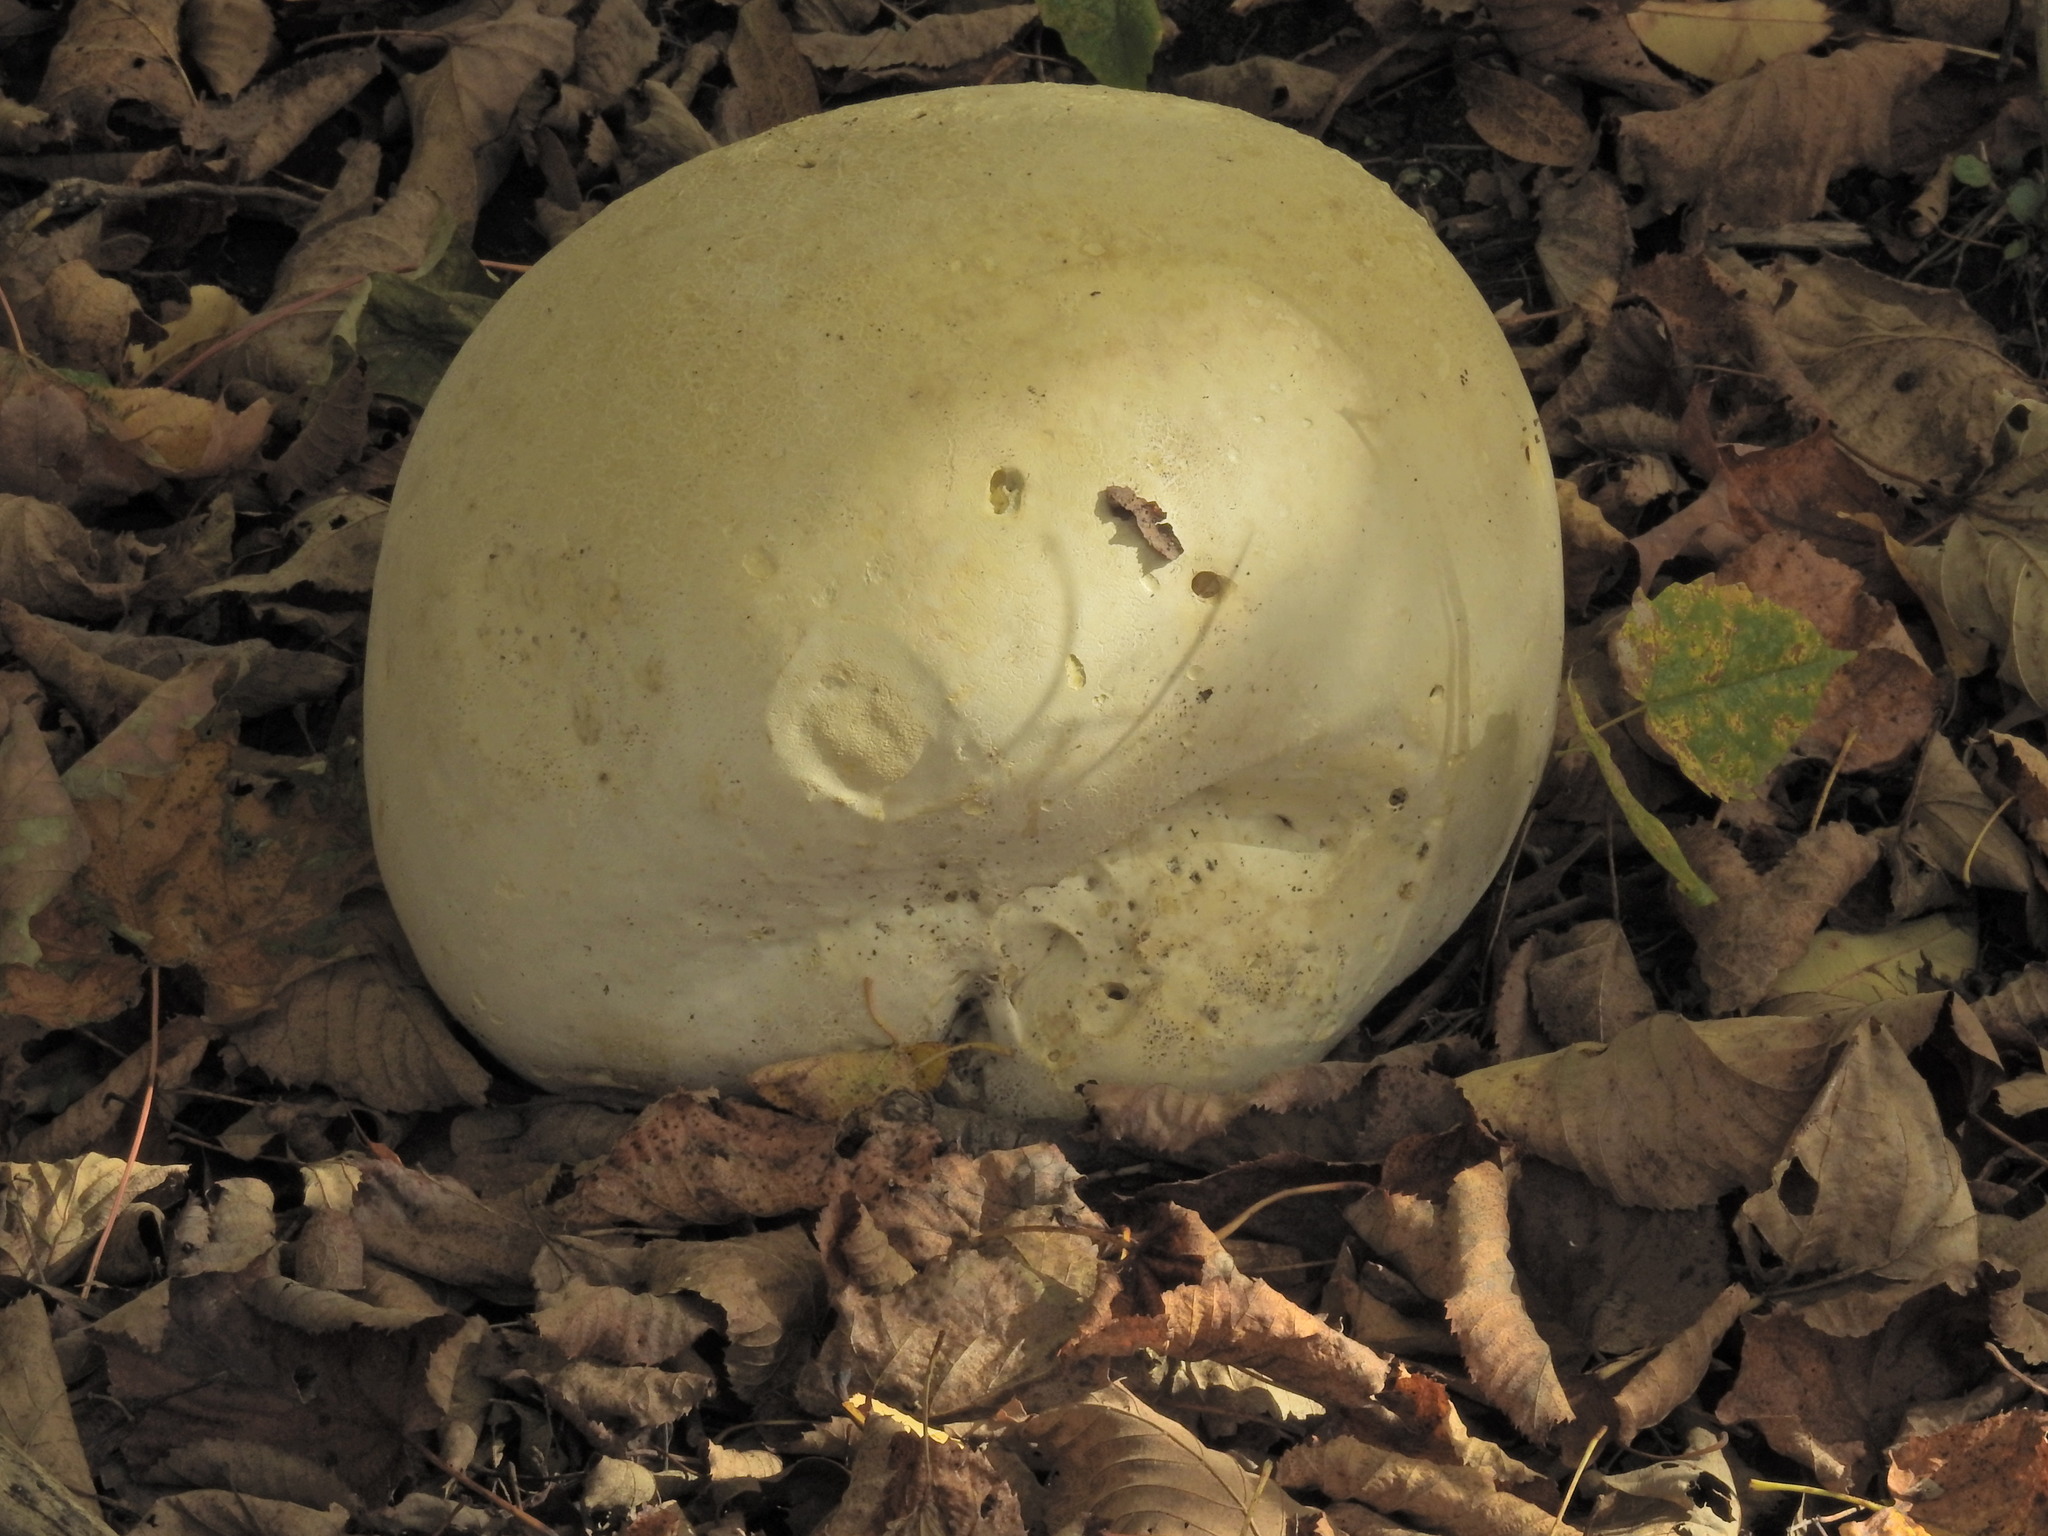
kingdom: Fungi
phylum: Basidiomycota
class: Agaricomycetes
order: Agaricales
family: Lycoperdaceae
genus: Calvatia
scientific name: Calvatia gigantea
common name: Giant puffball
